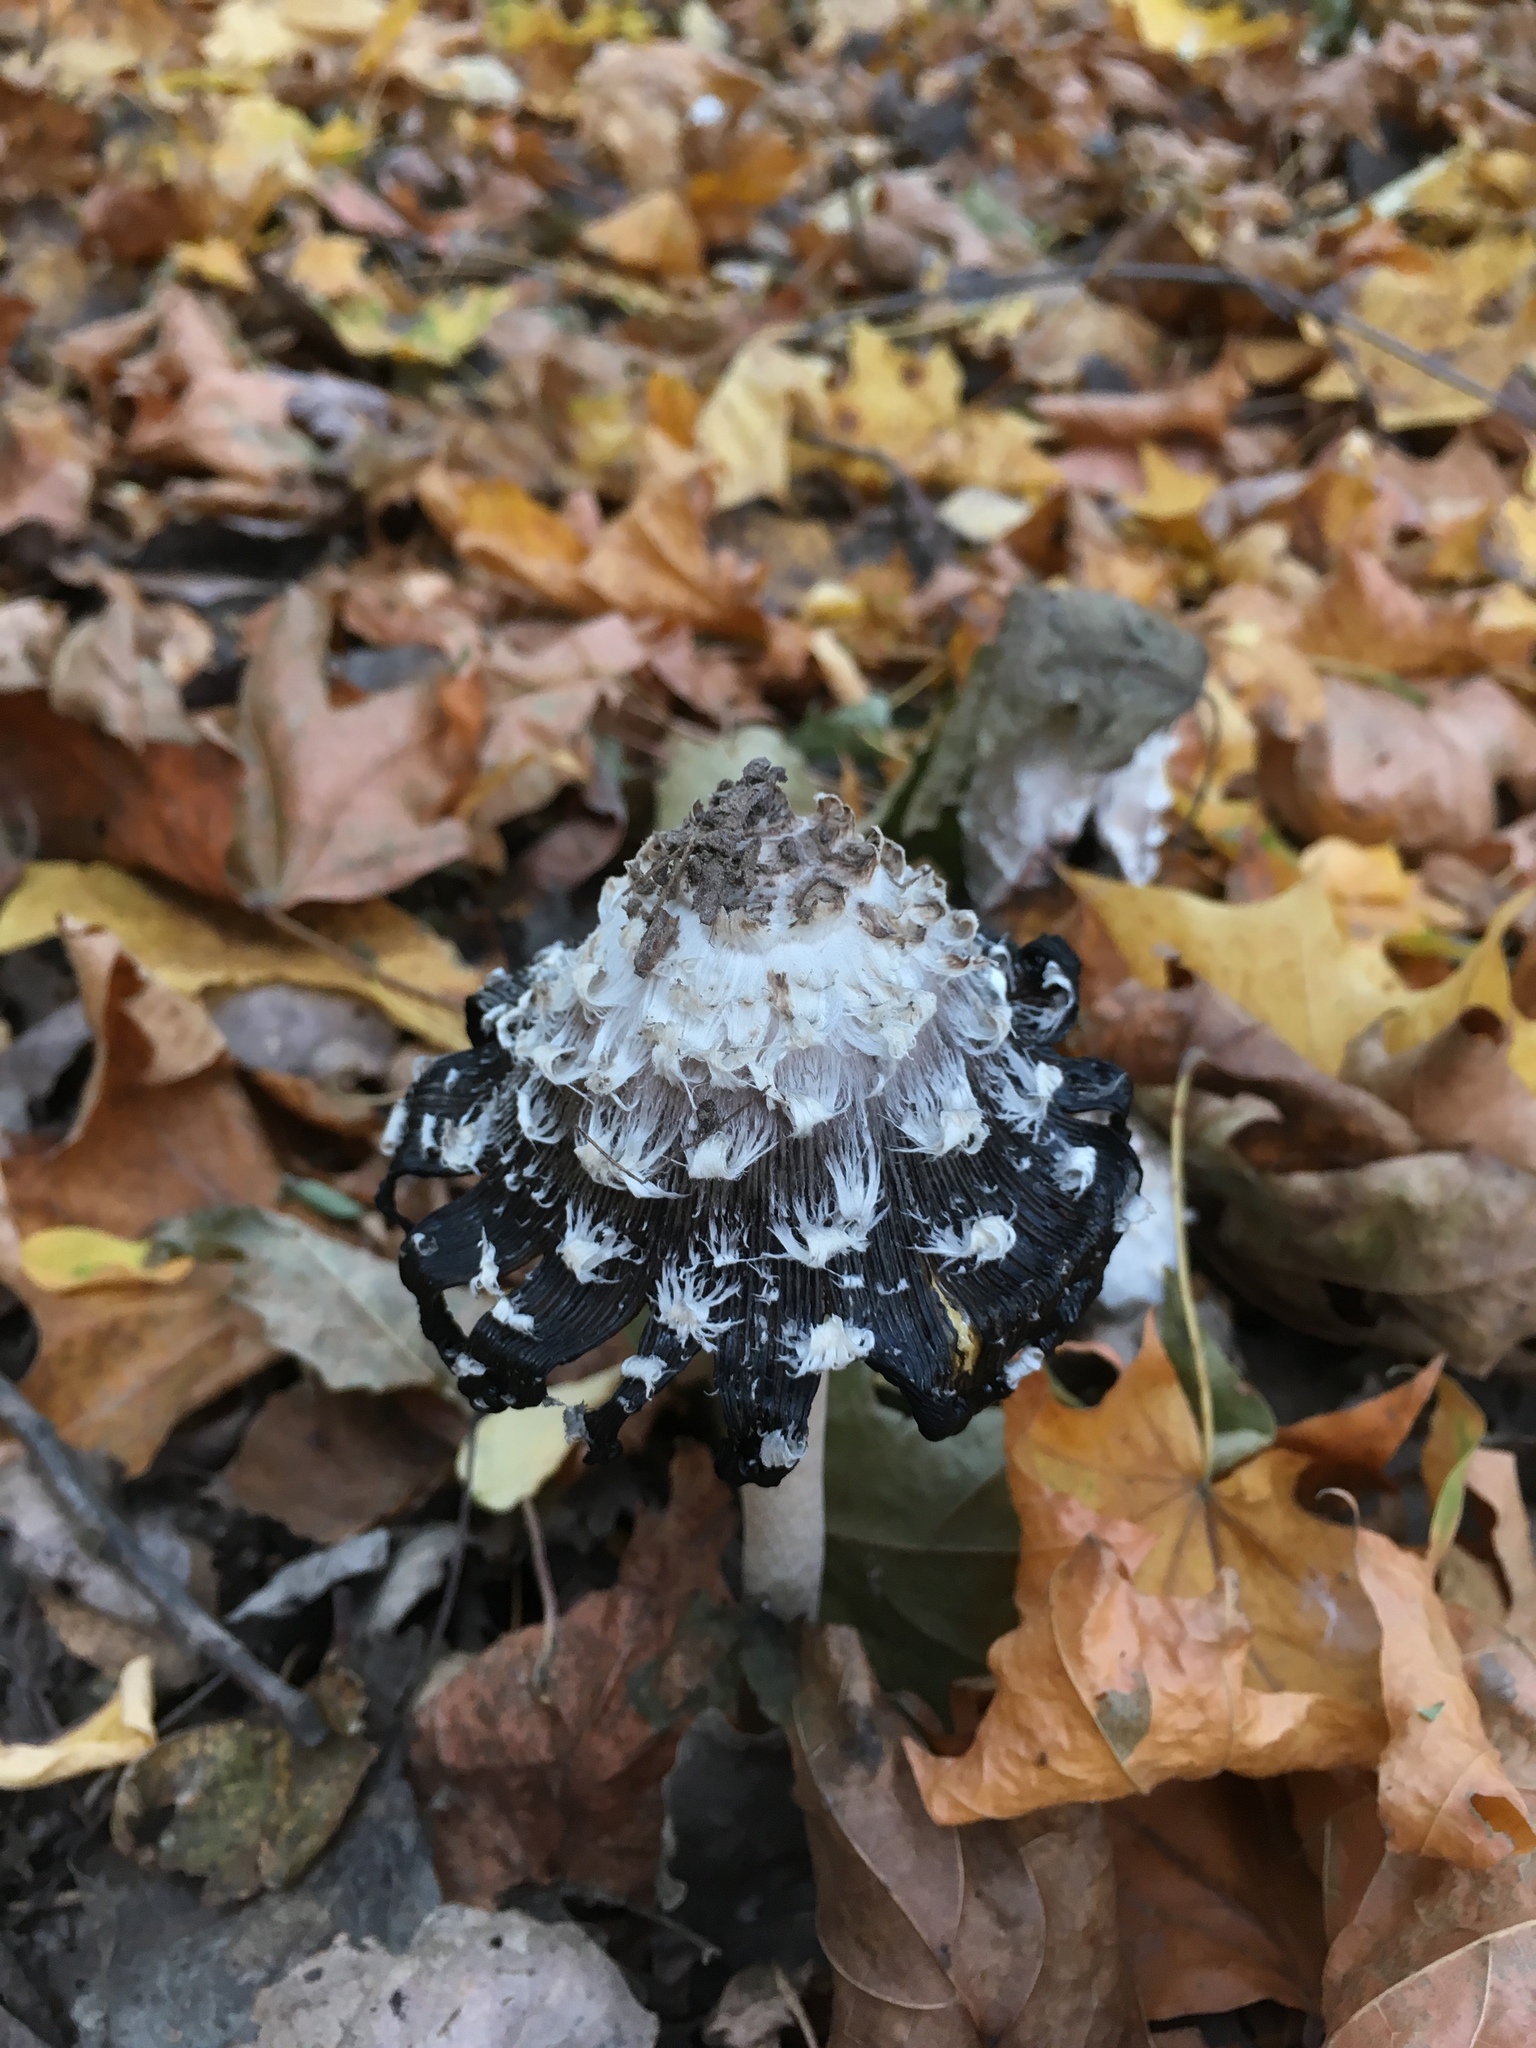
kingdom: Fungi
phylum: Basidiomycota
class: Agaricomycetes
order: Agaricales
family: Agaricaceae
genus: Coprinus
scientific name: Coprinus comatus
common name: Lawyer's wig
